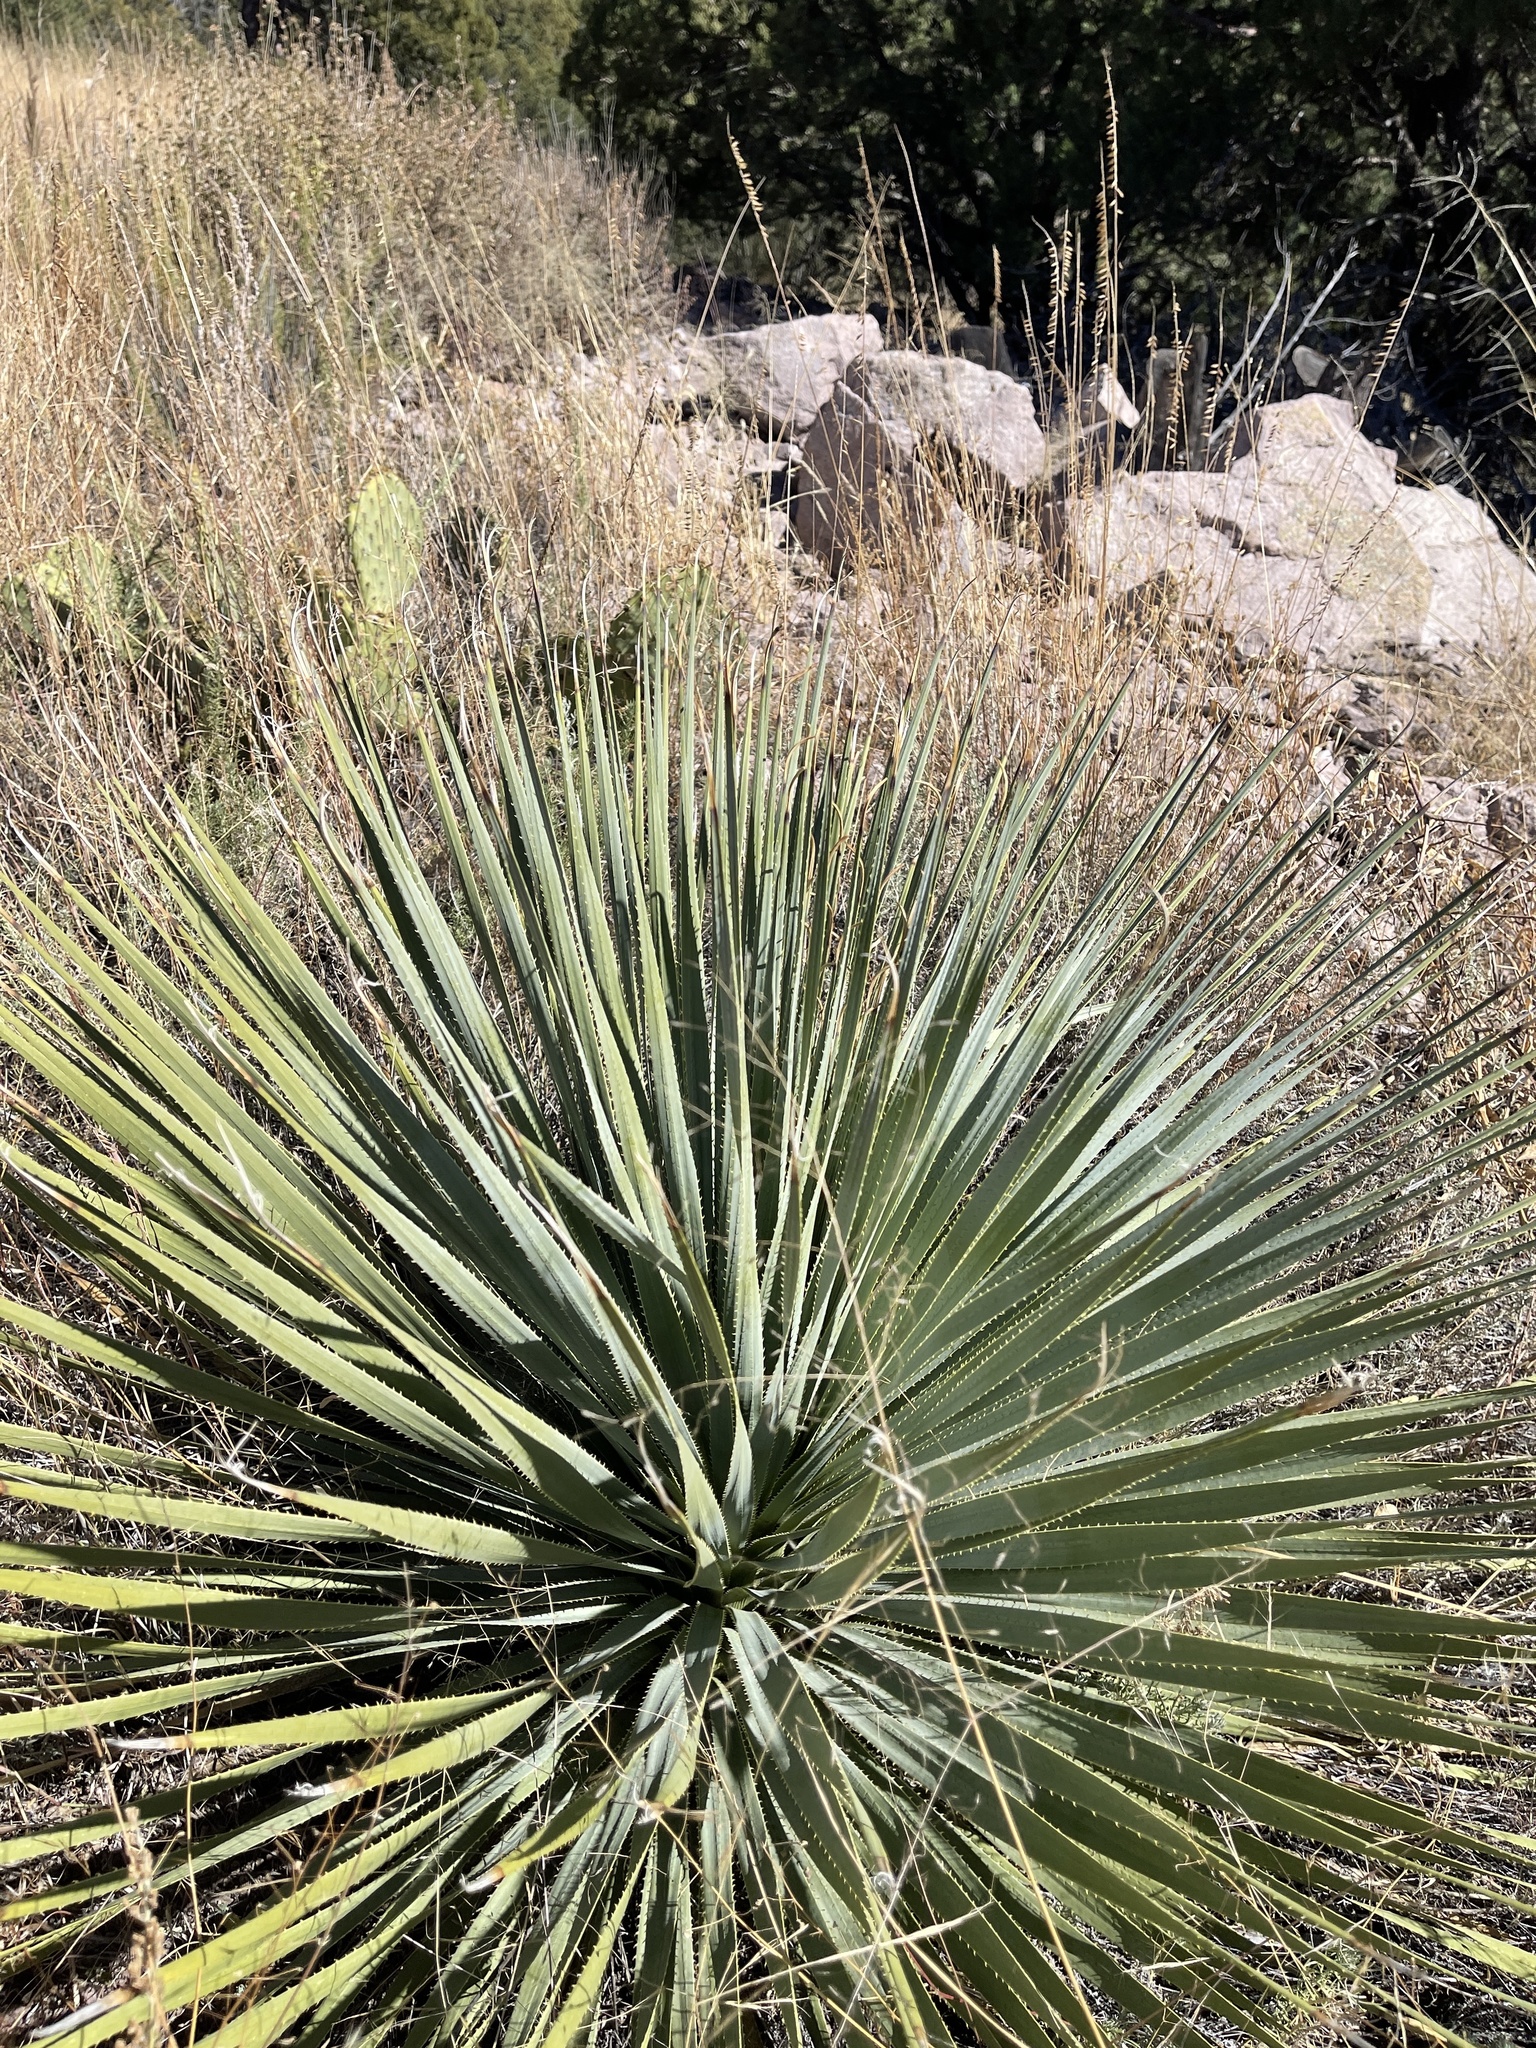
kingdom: Plantae
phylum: Tracheophyta
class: Liliopsida
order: Asparagales
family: Asparagaceae
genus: Dasylirion
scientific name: Dasylirion wheeleri
